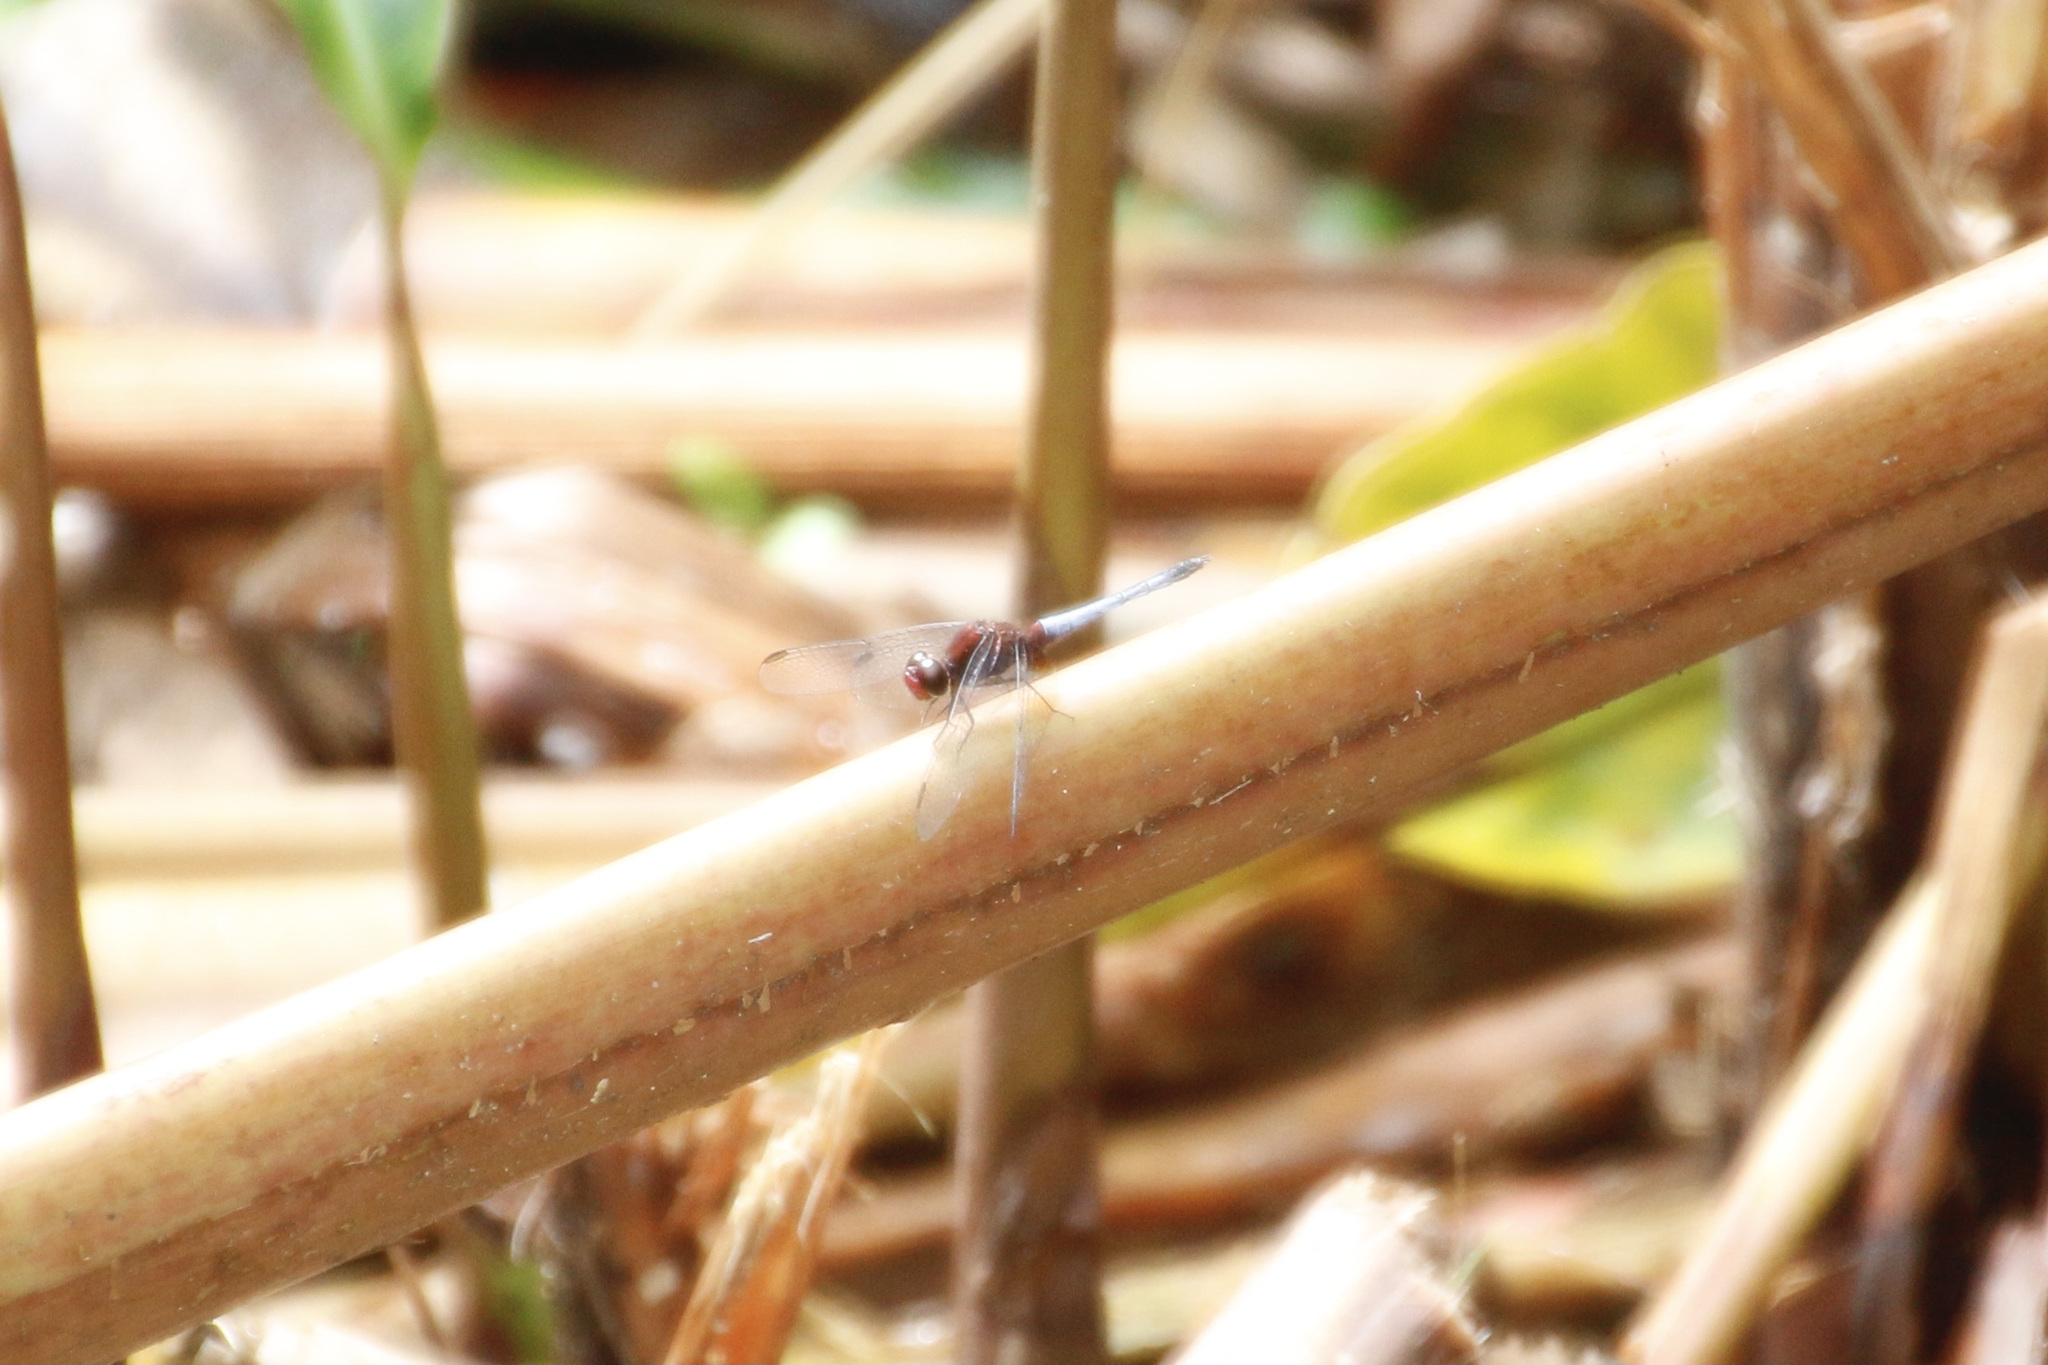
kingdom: Animalia
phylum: Arthropoda
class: Insecta
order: Odonata
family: Libellulidae
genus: Erythrodiplax
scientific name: Erythrodiplax fusca
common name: Red-faced dragonlet
